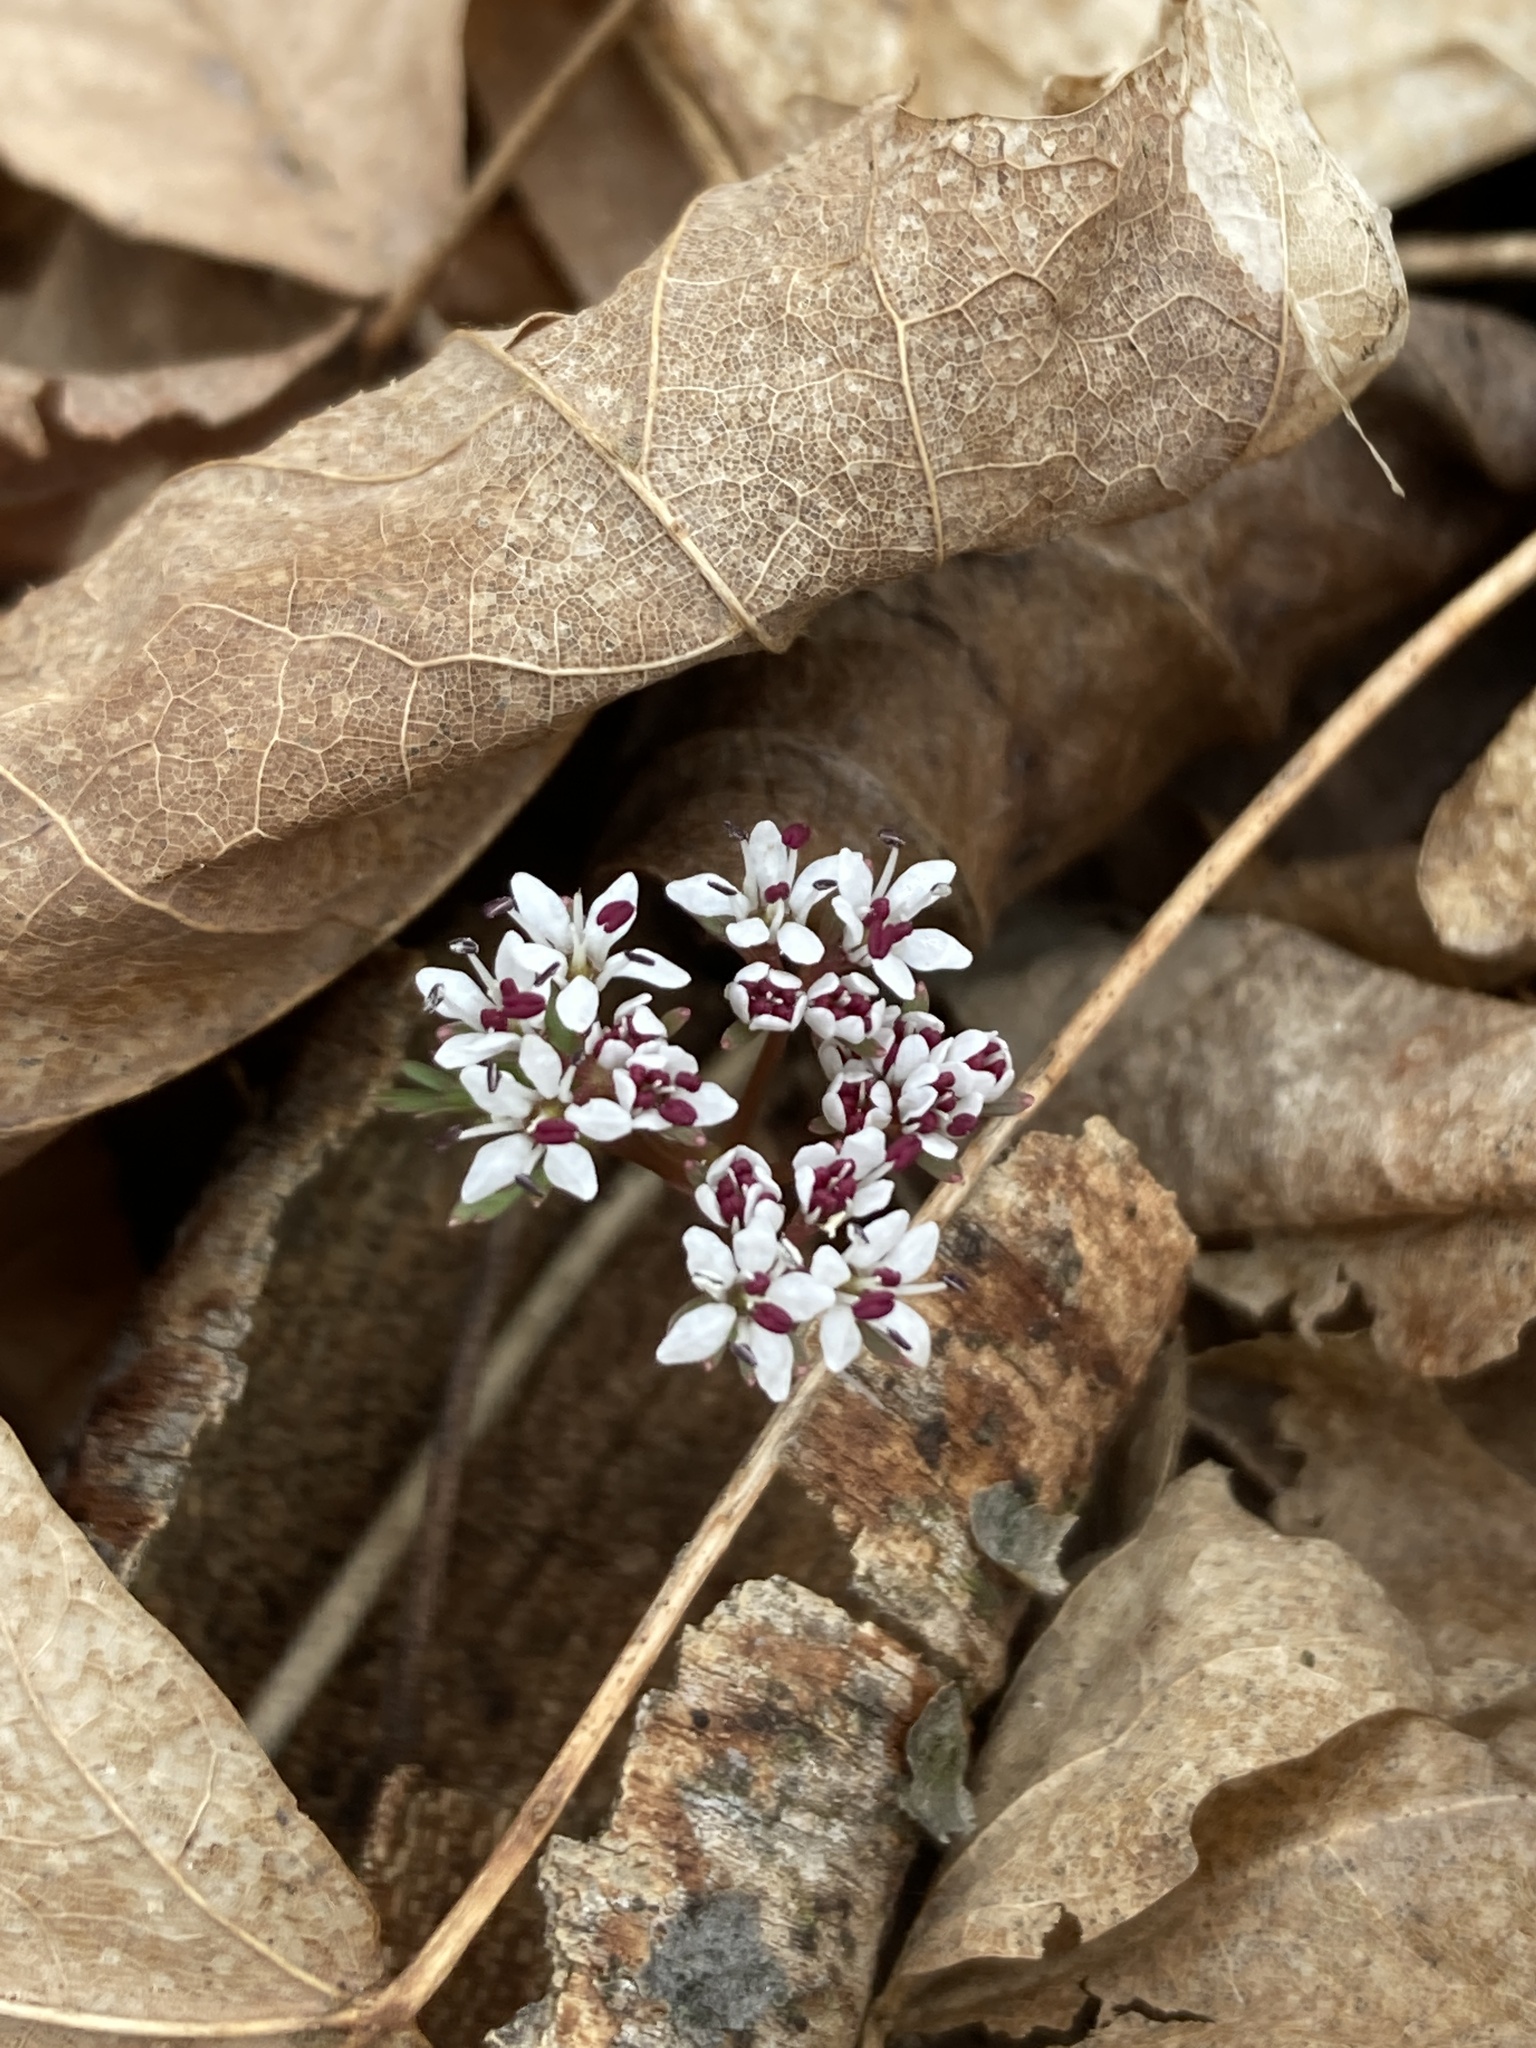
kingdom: Plantae
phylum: Tracheophyta
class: Magnoliopsida
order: Apiales
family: Apiaceae
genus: Erigenia
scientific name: Erigenia bulbosa
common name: Pepper-and-salt
